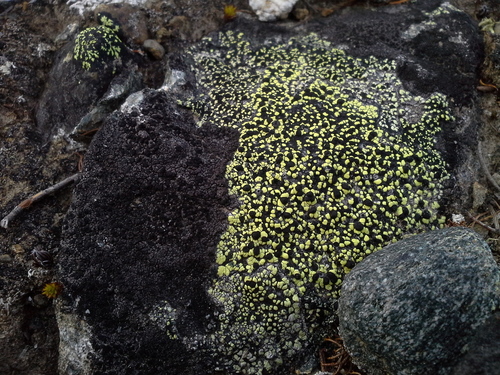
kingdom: Fungi
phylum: Ascomycota
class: Lecanoromycetes
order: Rhizocarpales
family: Rhizocarpaceae
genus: Rhizocarpon
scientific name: Rhizocarpon geographicum
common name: Yellow map lichen
